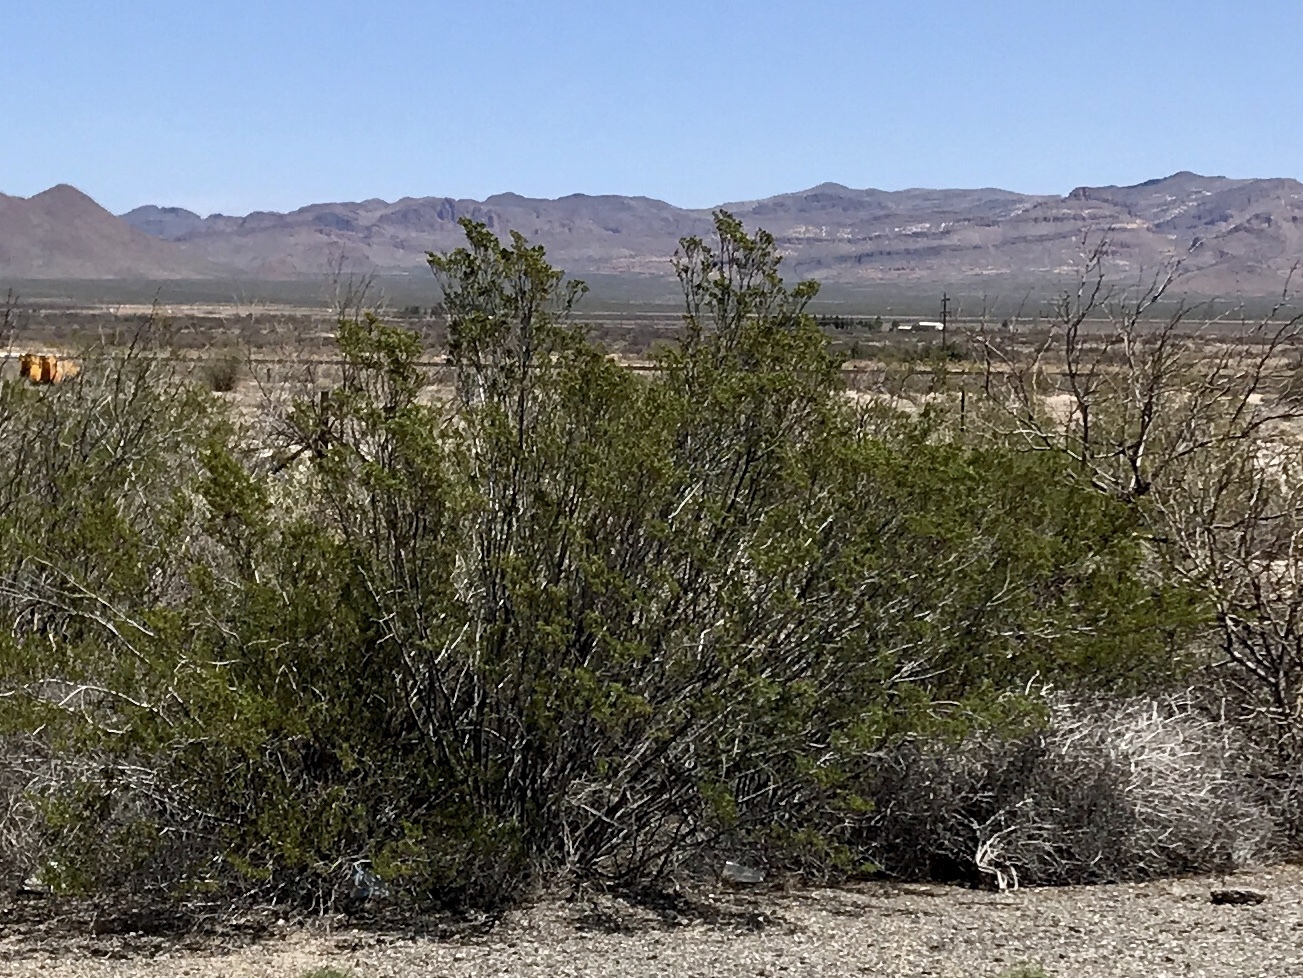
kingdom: Plantae
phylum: Tracheophyta
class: Magnoliopsida
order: Zygophyllales
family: Zygophyllaceae
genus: Larrea
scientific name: Larrea tridentata
